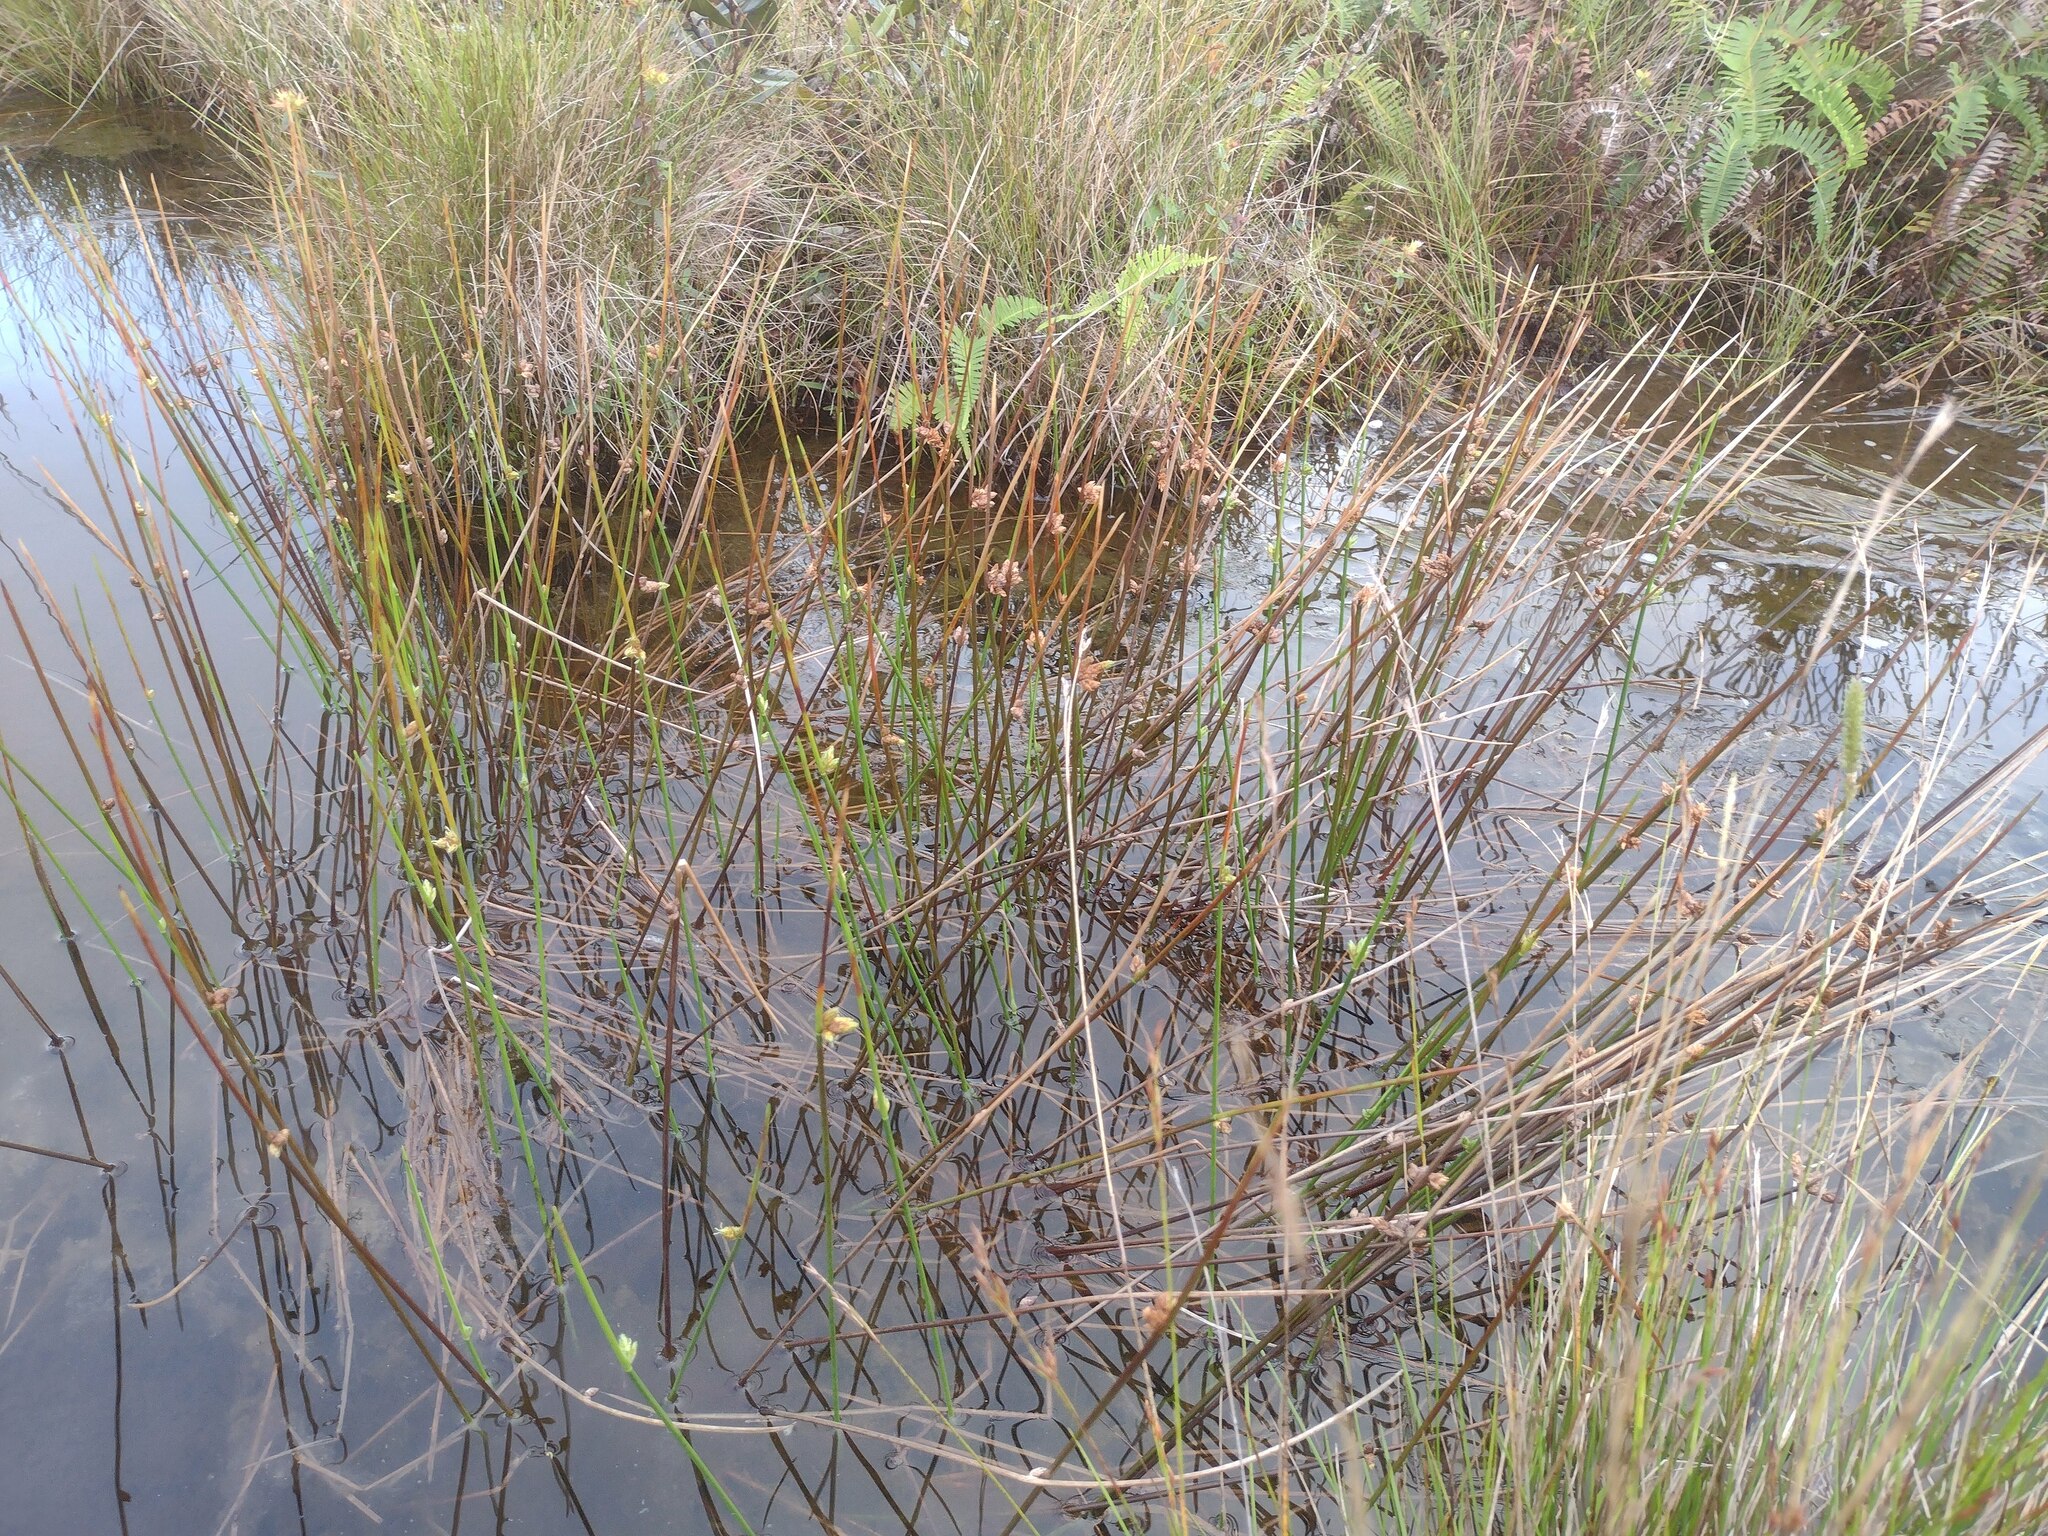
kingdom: Plantae
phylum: Tracheophyta
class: Liliopsida
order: Poales
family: Cyperaceae
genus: Schoenoplectiella
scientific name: Schoenoplectiella juncoides
